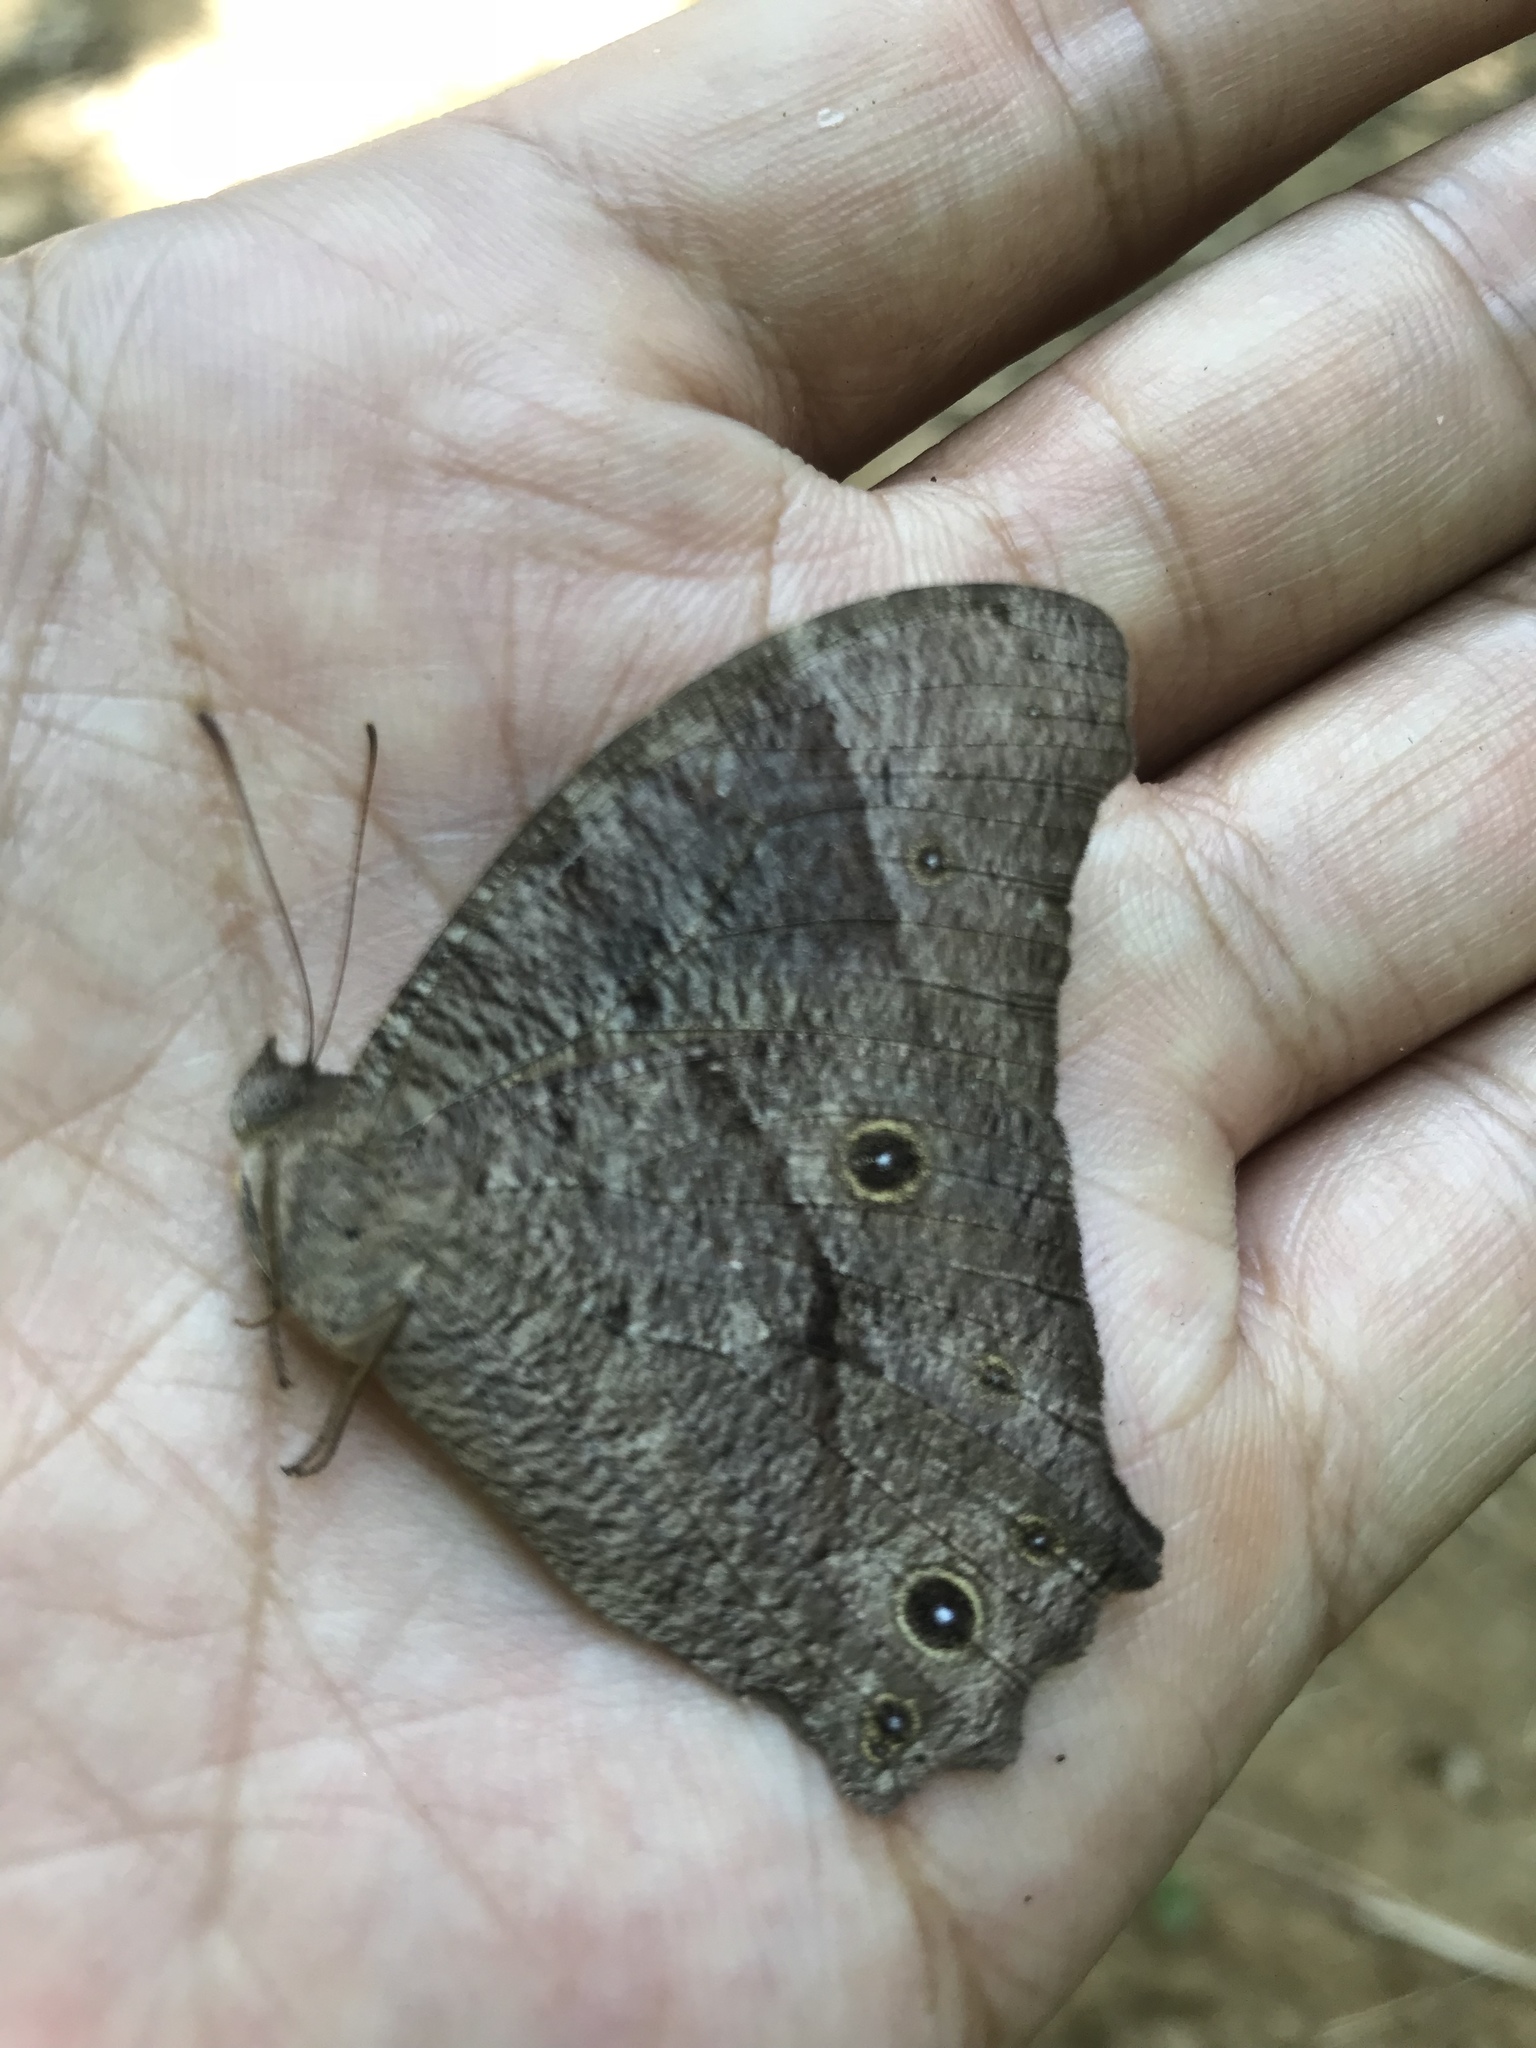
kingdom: Animalia
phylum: Arthropoda
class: Insecta
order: Lepidoptera
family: Nymphalidae
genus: Melanitis
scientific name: Melanitis leda
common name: Twilight brown
